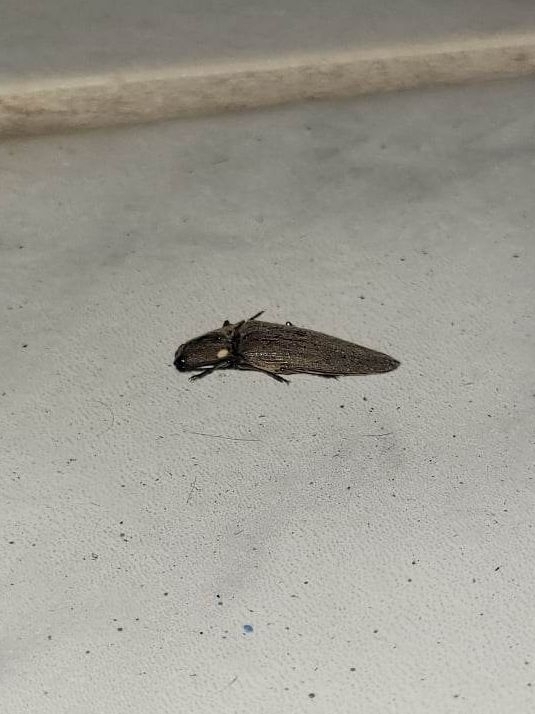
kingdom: Animalia
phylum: Arthropoda
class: Insecta
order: Coleoptera
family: Elateridae
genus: Ignelater
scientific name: Ignelater luminosus
